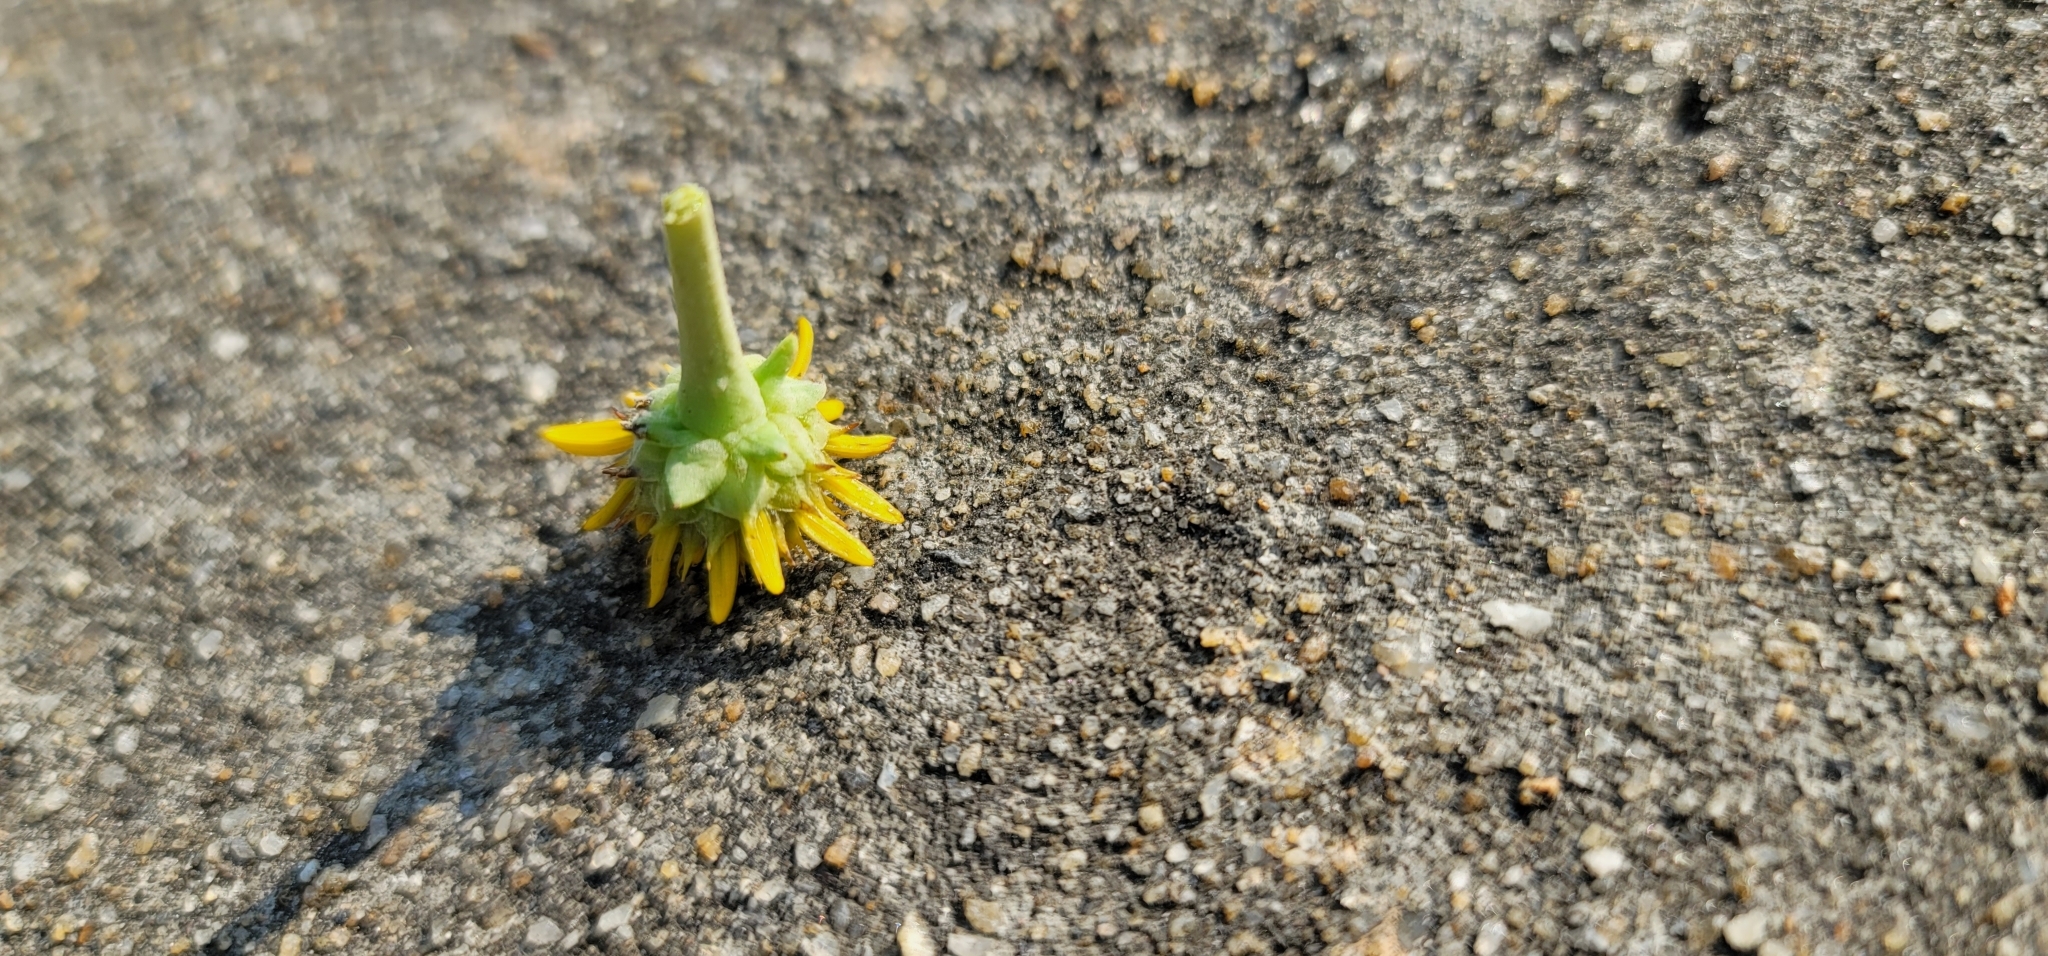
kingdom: Plantae
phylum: Tracheophyta
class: Magnoliopsida
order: Asterales
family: Asteraceae
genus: Borrichia
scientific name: Borrichia frutescens
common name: Sea oxeye
